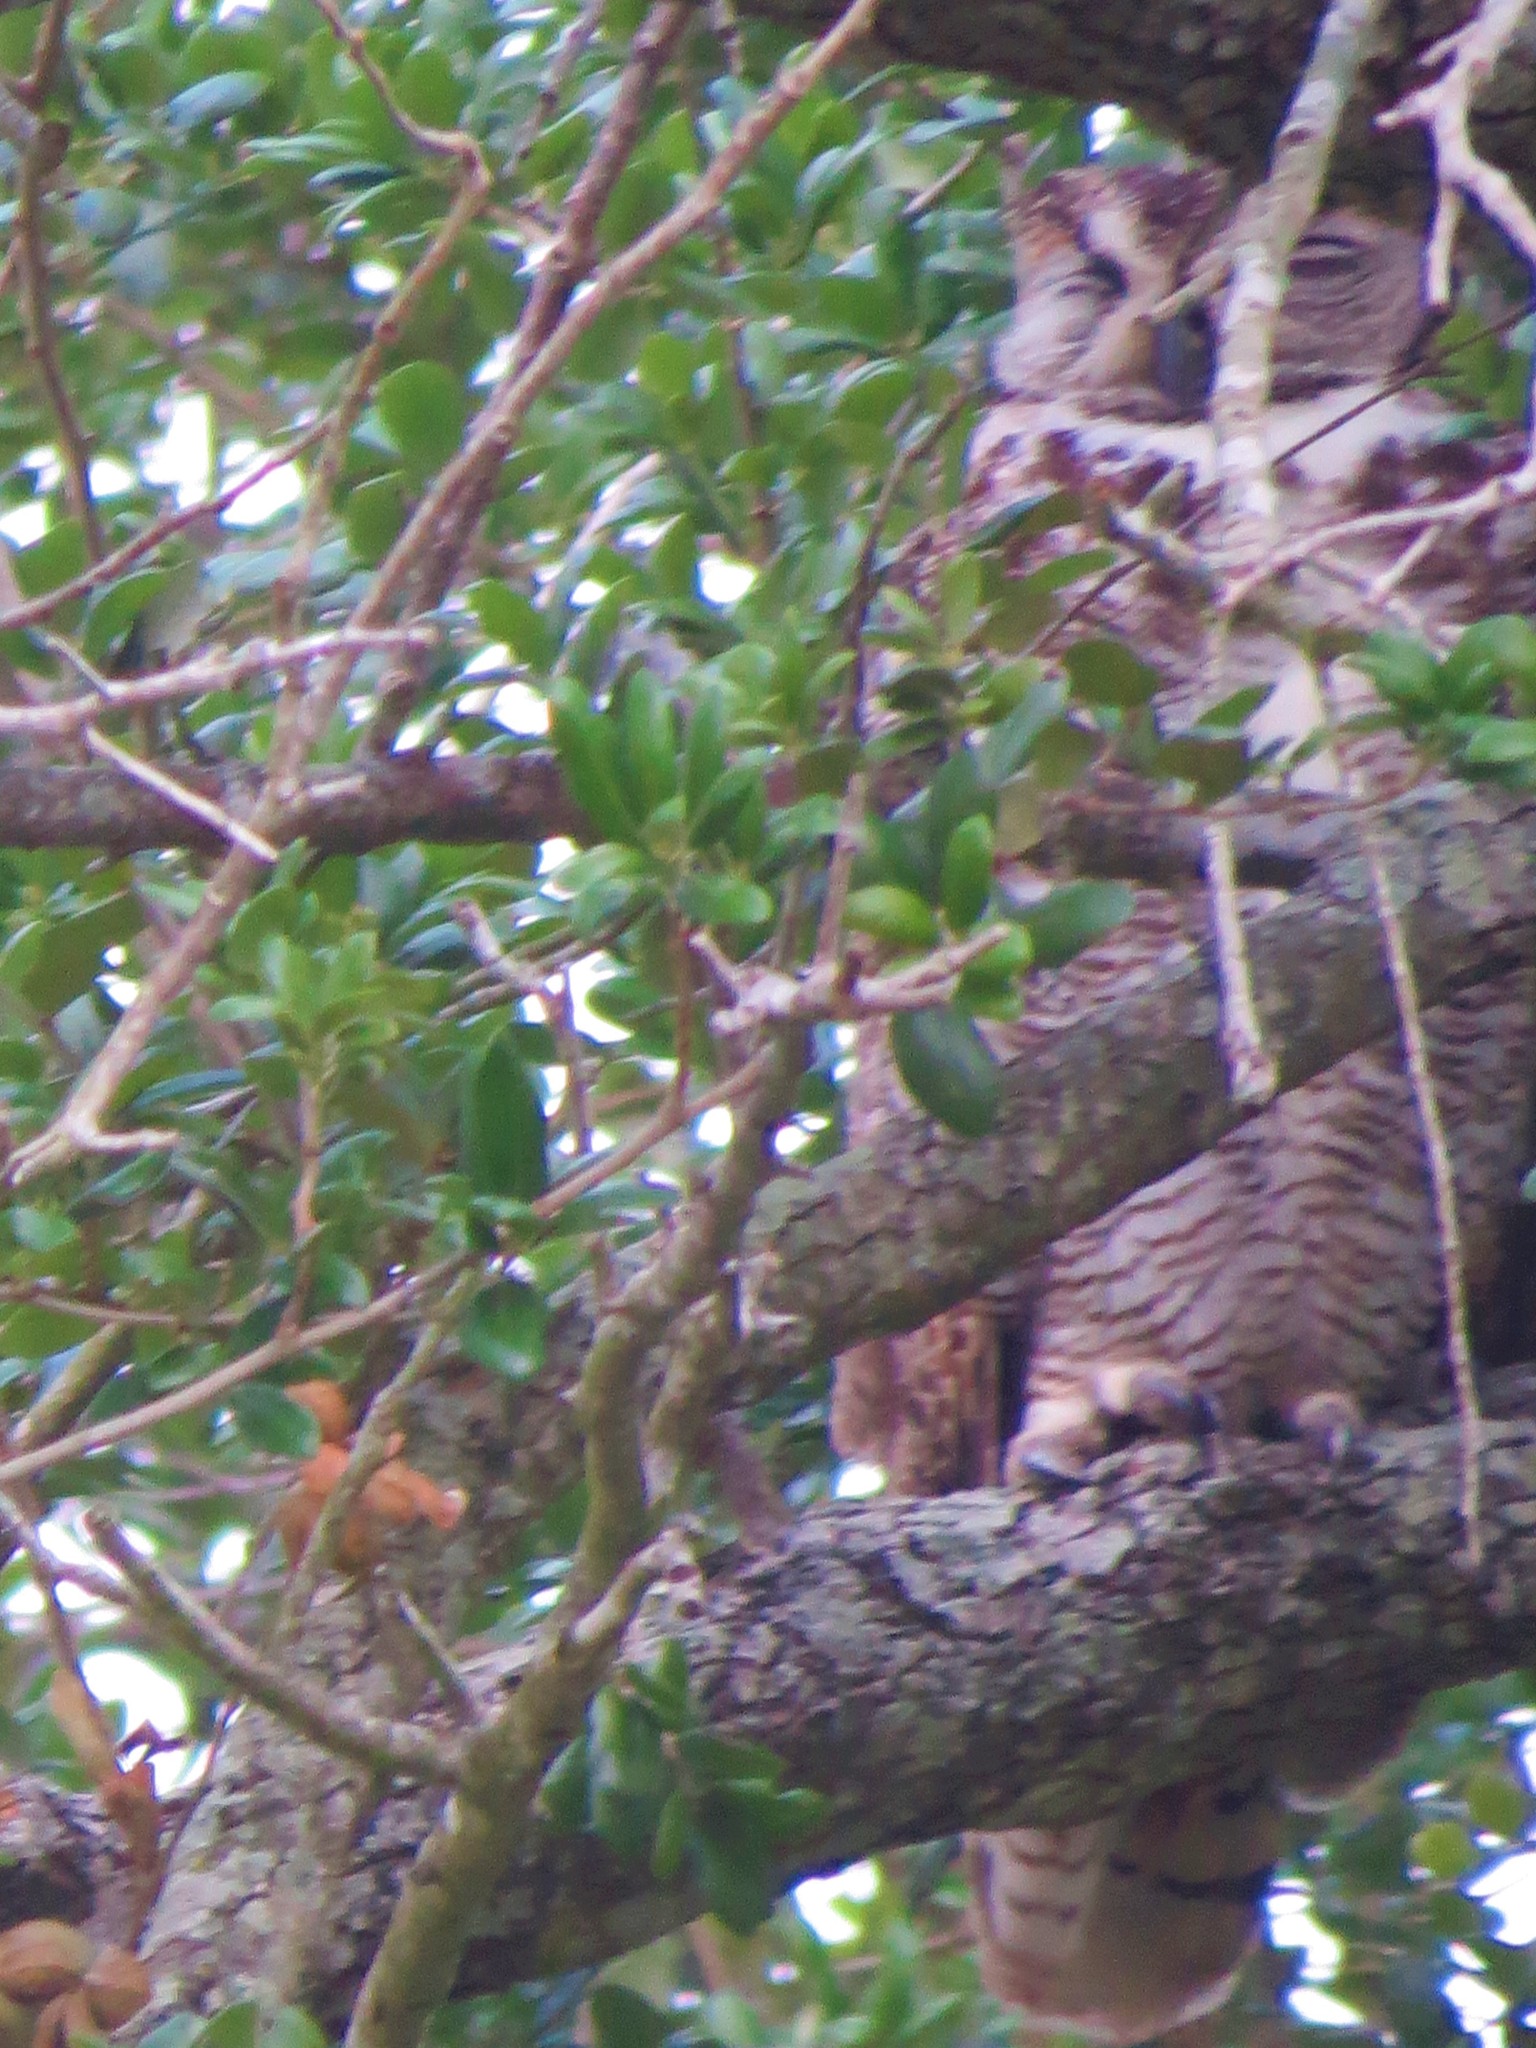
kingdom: Animalia
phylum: Chordata
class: Aves
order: Strigiformes
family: Strigidae
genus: Bubo
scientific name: Bubo virginianus
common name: Great horned owl
